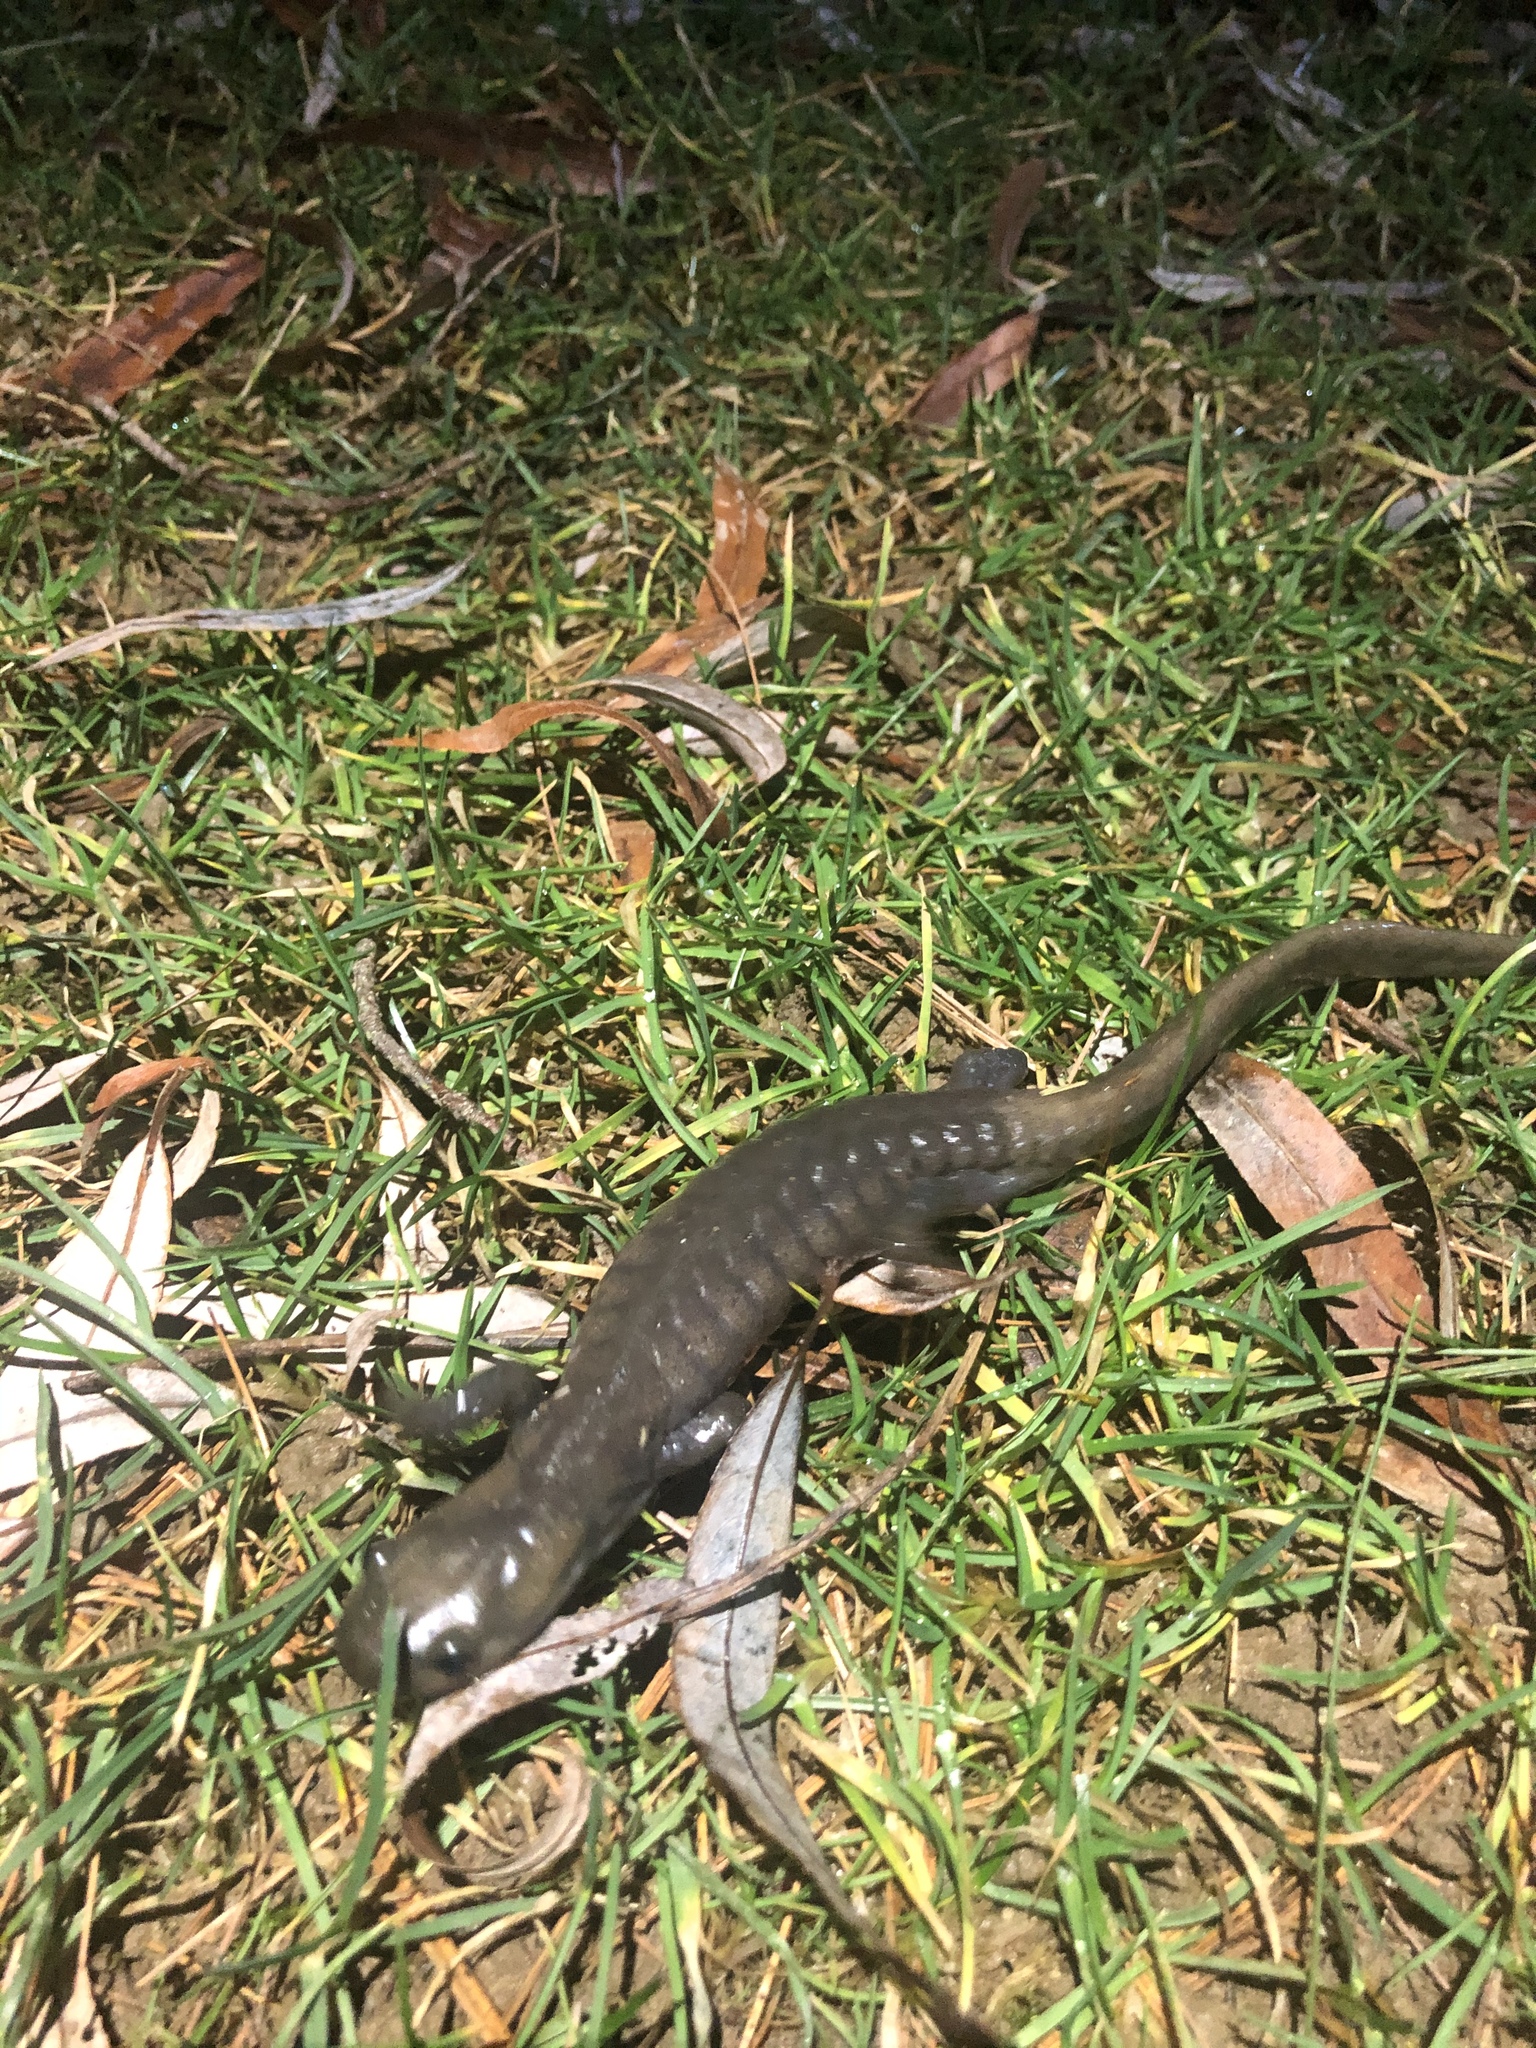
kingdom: Animalia
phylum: Chordata
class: Amphibia
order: Caudata
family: Ambystomatidae
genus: Ambystoma
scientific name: Ambystoma jeffersonianum
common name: Jefferson salamander
